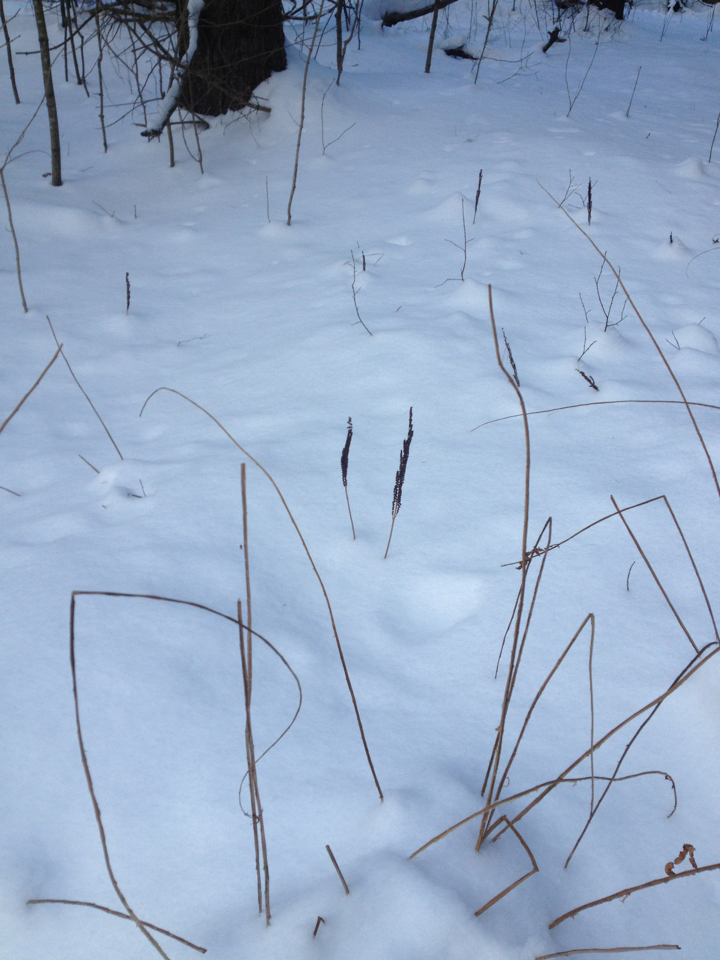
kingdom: Plantae
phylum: Tracheophyta
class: Polypodiopsida
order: Polypodiales
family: Onocleaceae
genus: Onoclea
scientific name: Onoclea sensibilis
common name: Sensitive fern
